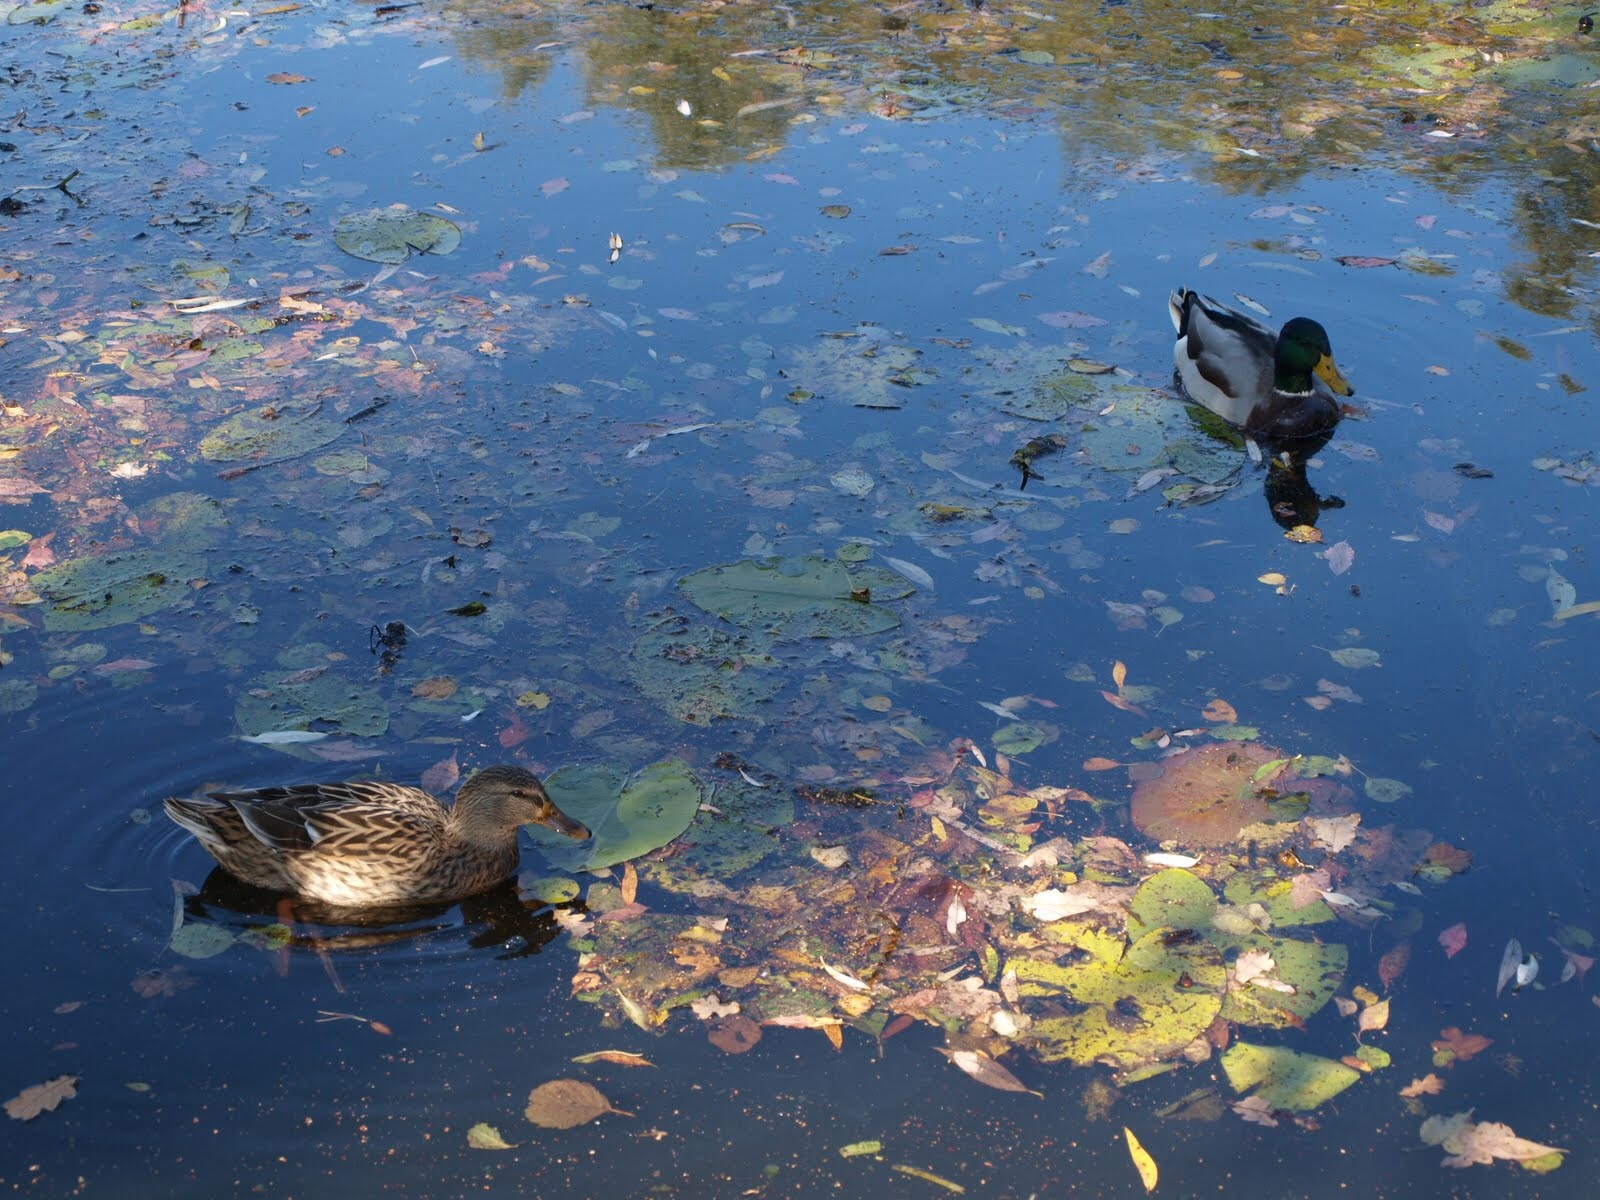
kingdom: Animalia
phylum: Chordata
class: Aves
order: Anseriformes
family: Anatidae
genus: Anas
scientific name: Anas platyrhynchos
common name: Mallard
